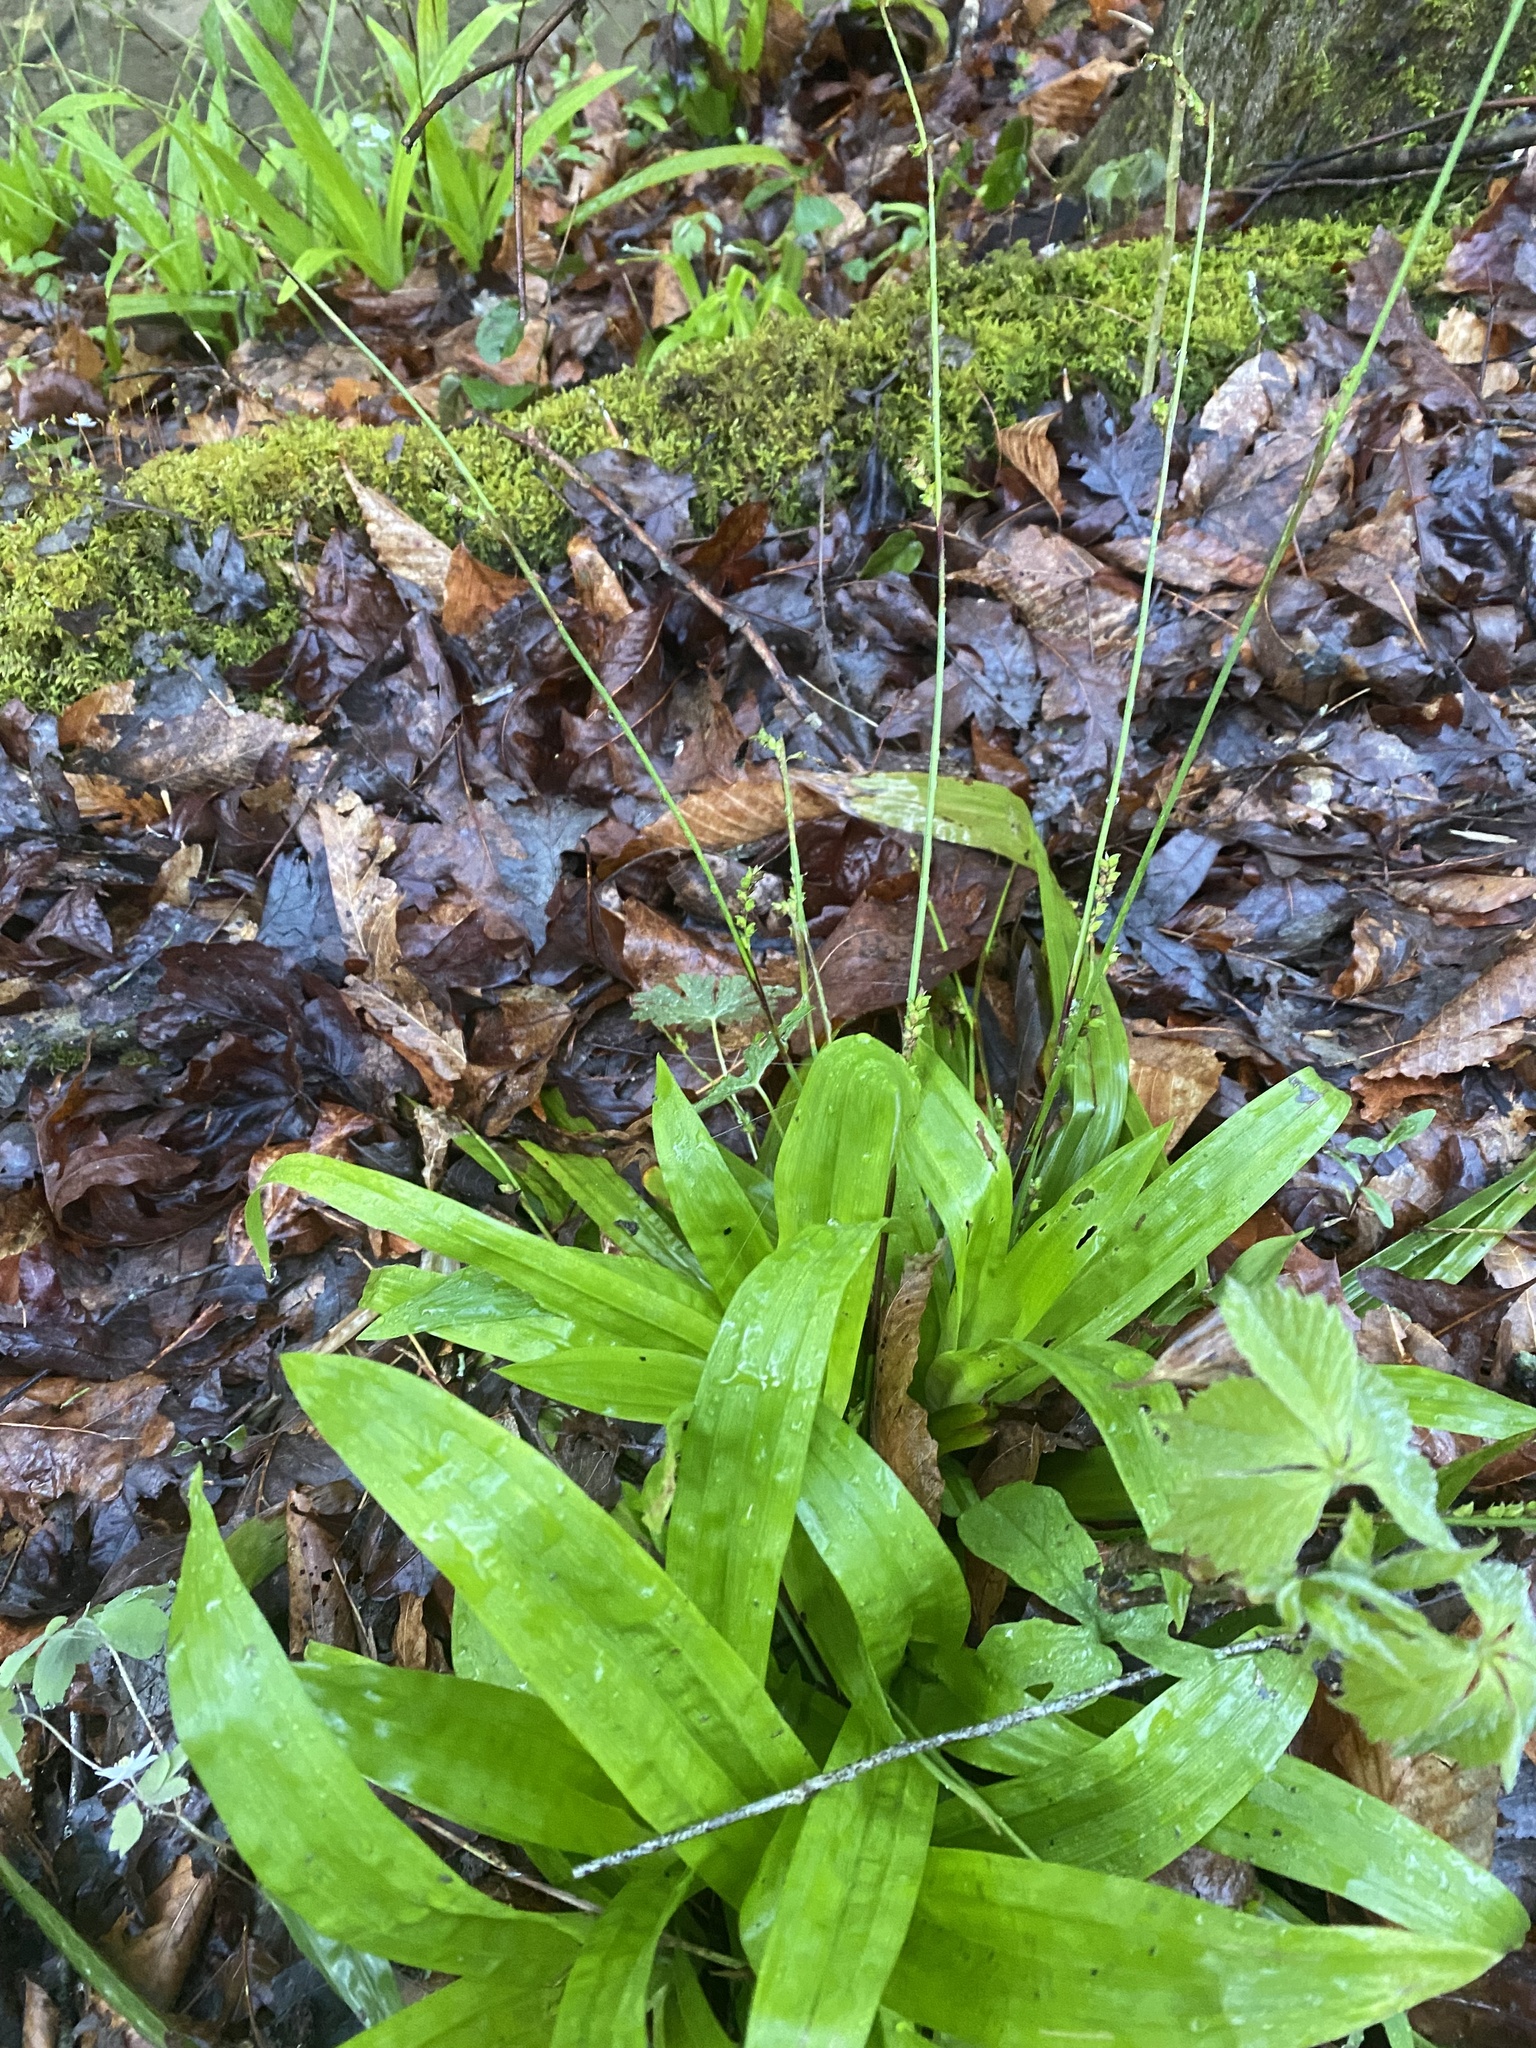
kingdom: Plantae
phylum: Tracheophyta
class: Liliopsida
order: Poales
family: Cyperaceae
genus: Carex
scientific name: Carex plantaginea
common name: Plantain-leaved sedge
